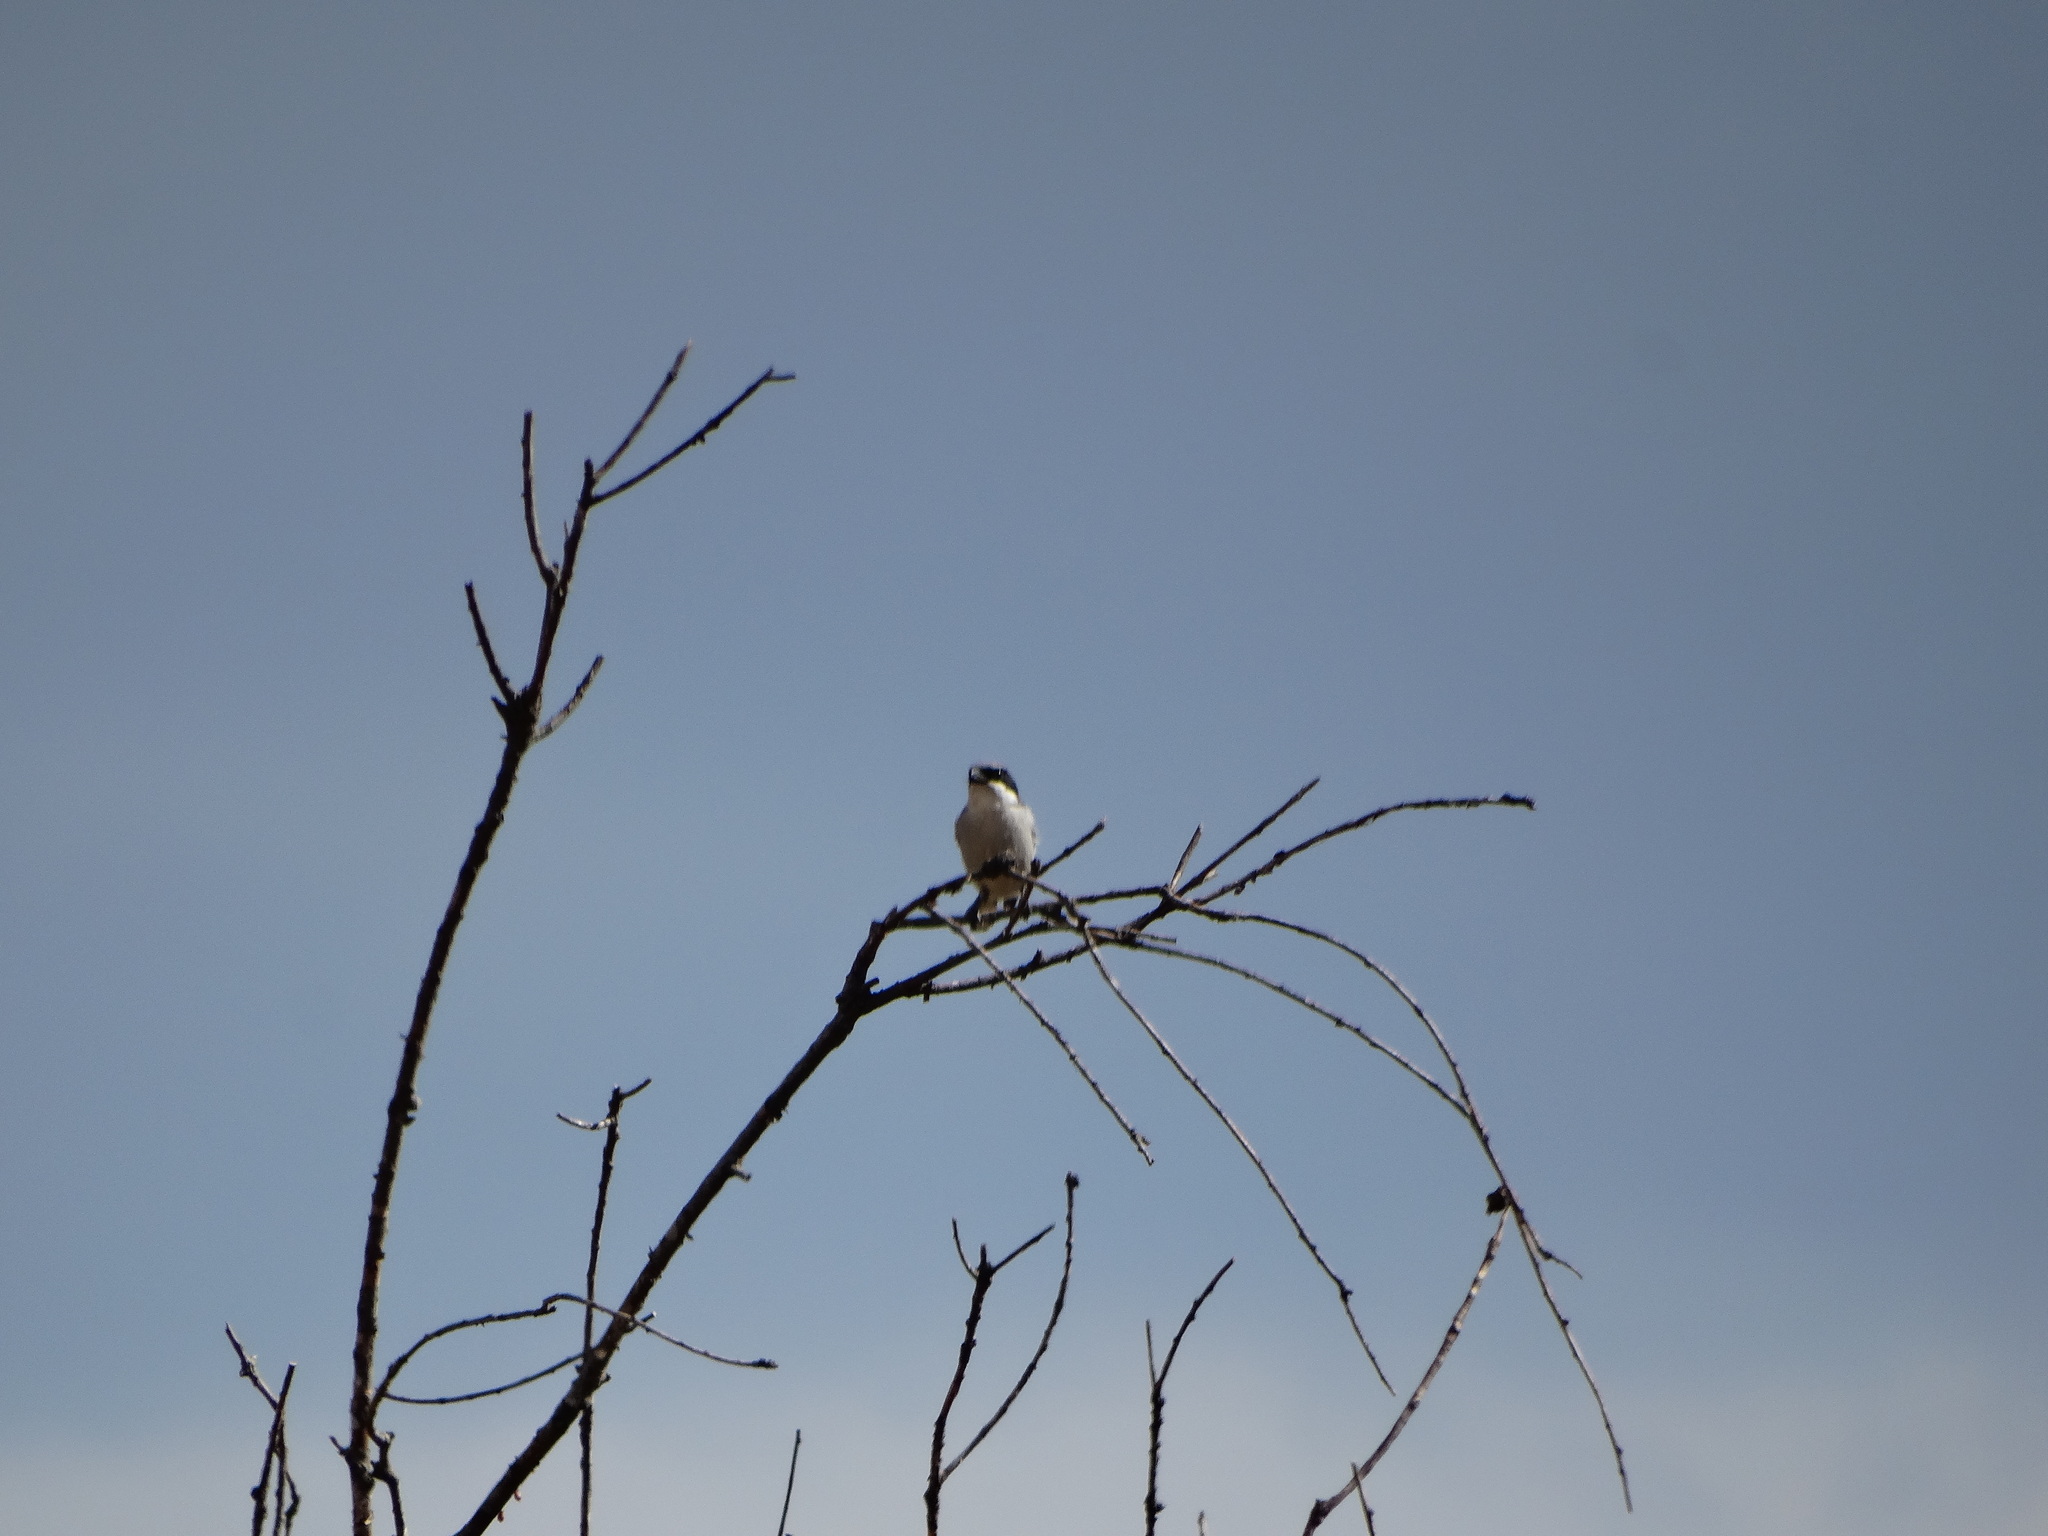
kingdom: Animalia
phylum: Chordata
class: Aves
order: Passeriformes
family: Laniidae
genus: Lanius
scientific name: Lanius ludovicianus
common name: Loggerhead shrike
